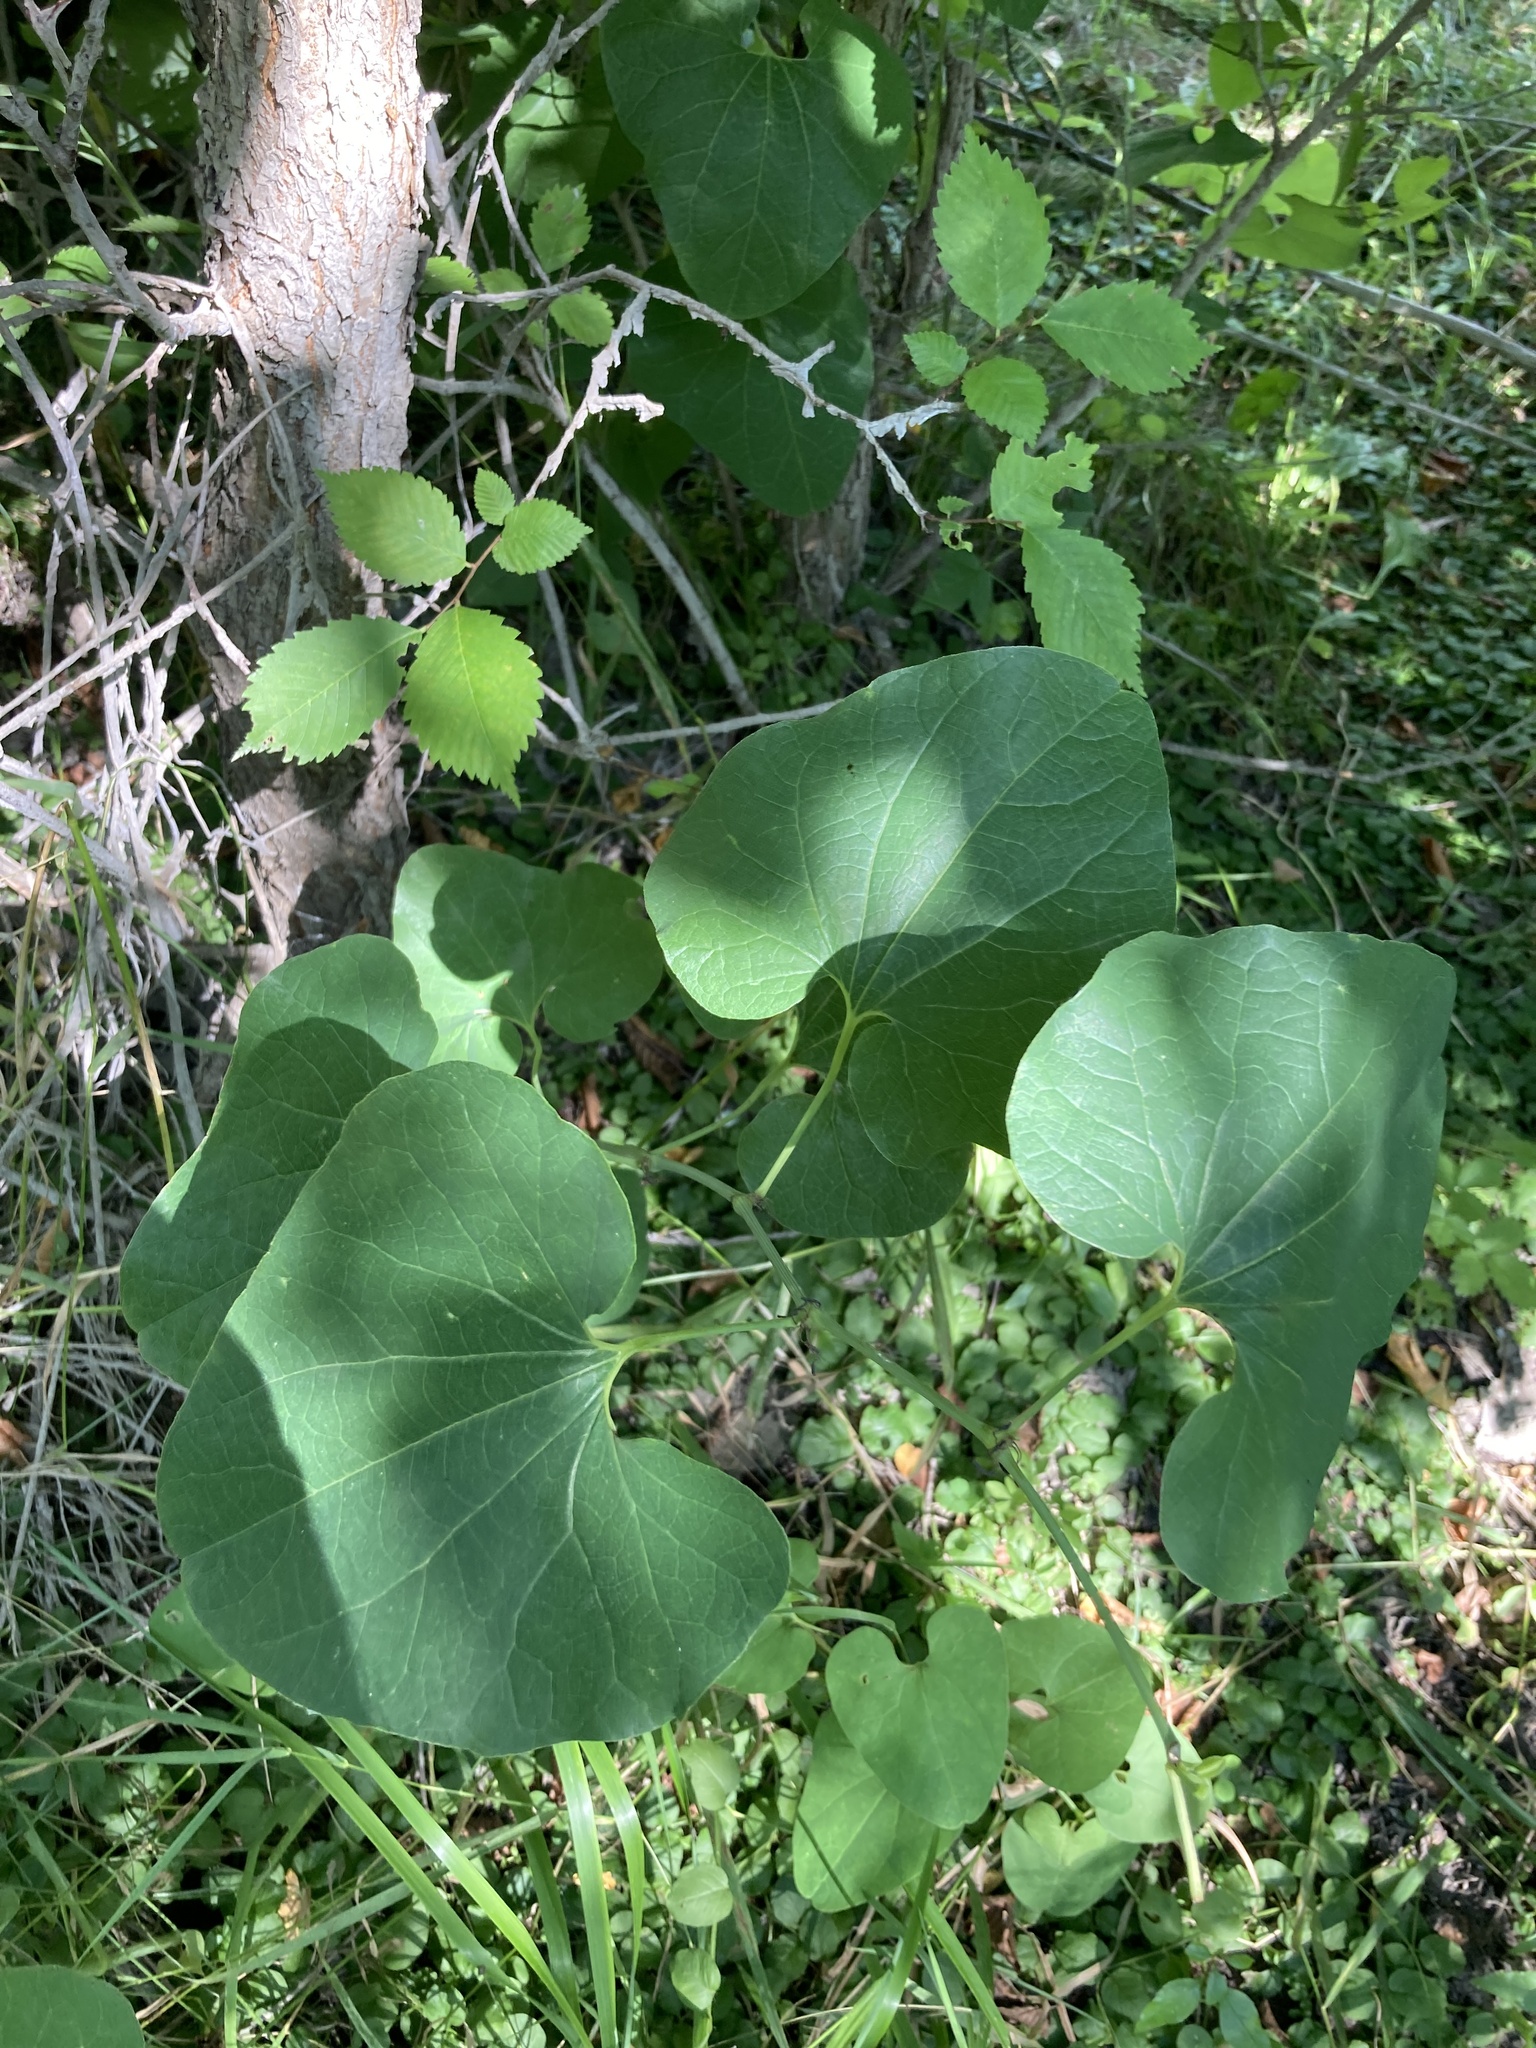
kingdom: Plantae
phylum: Tracheophyta
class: Magnoliopsida
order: Piperales
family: Aristolochiaceae
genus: Aristolochia
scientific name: Aristolochia clematitis
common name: Birthwort
